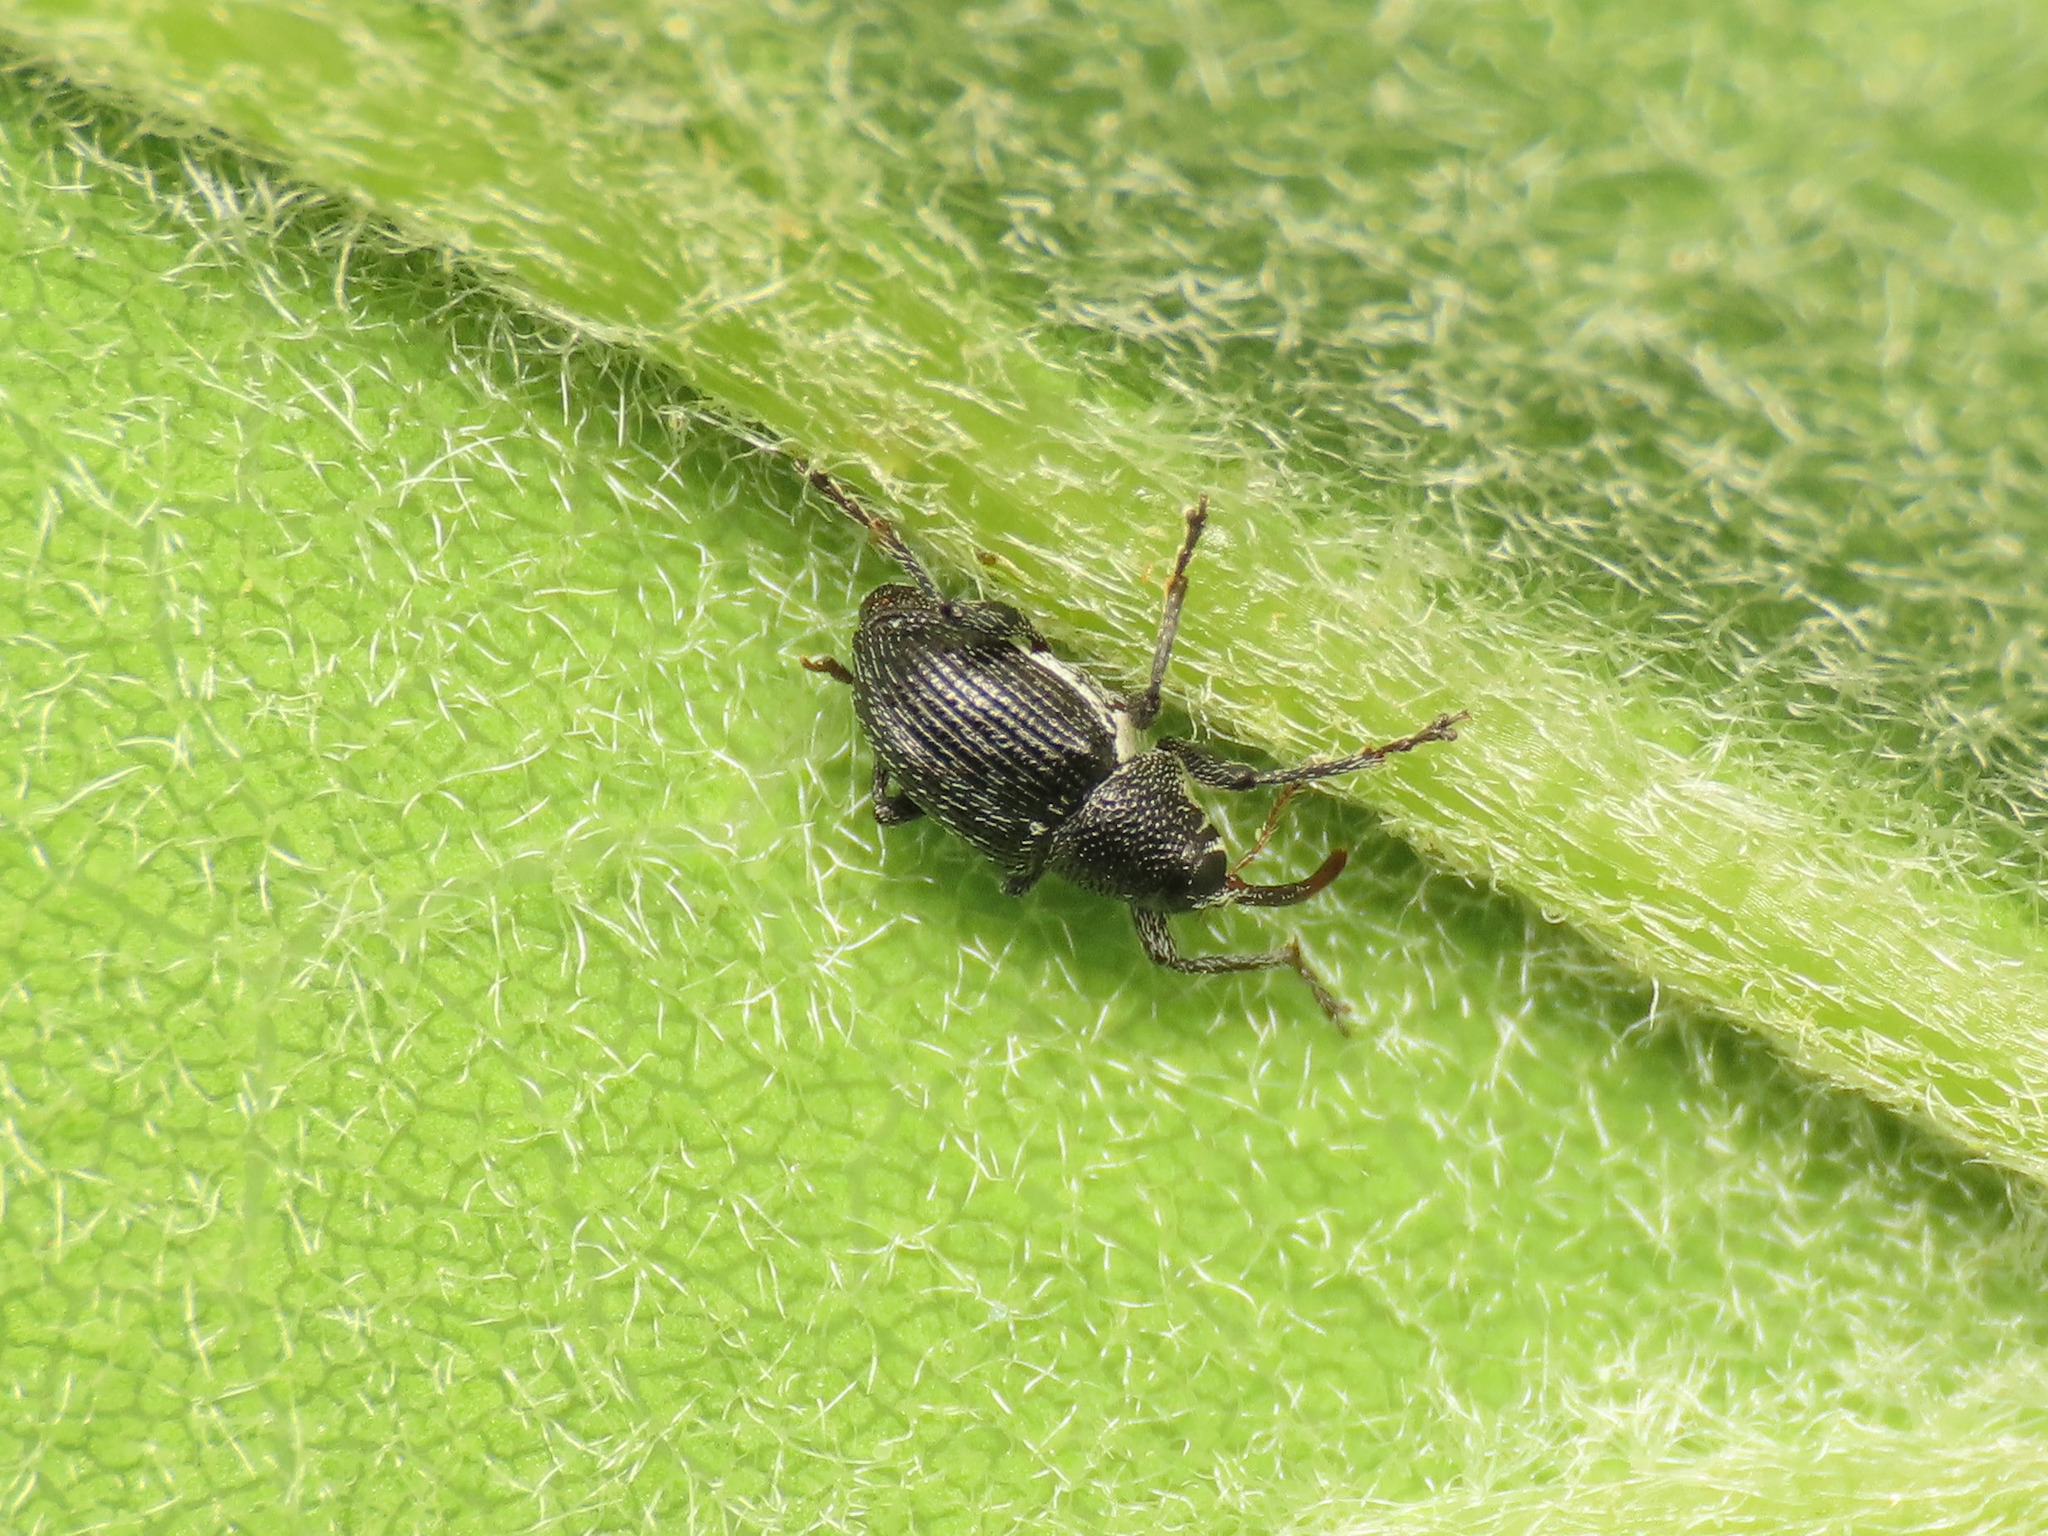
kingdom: Animalia
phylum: Arthropoda
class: Insecta
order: Coleoptera
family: Curculionidae
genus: Archarius
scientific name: Archarius pyrrhoceras
